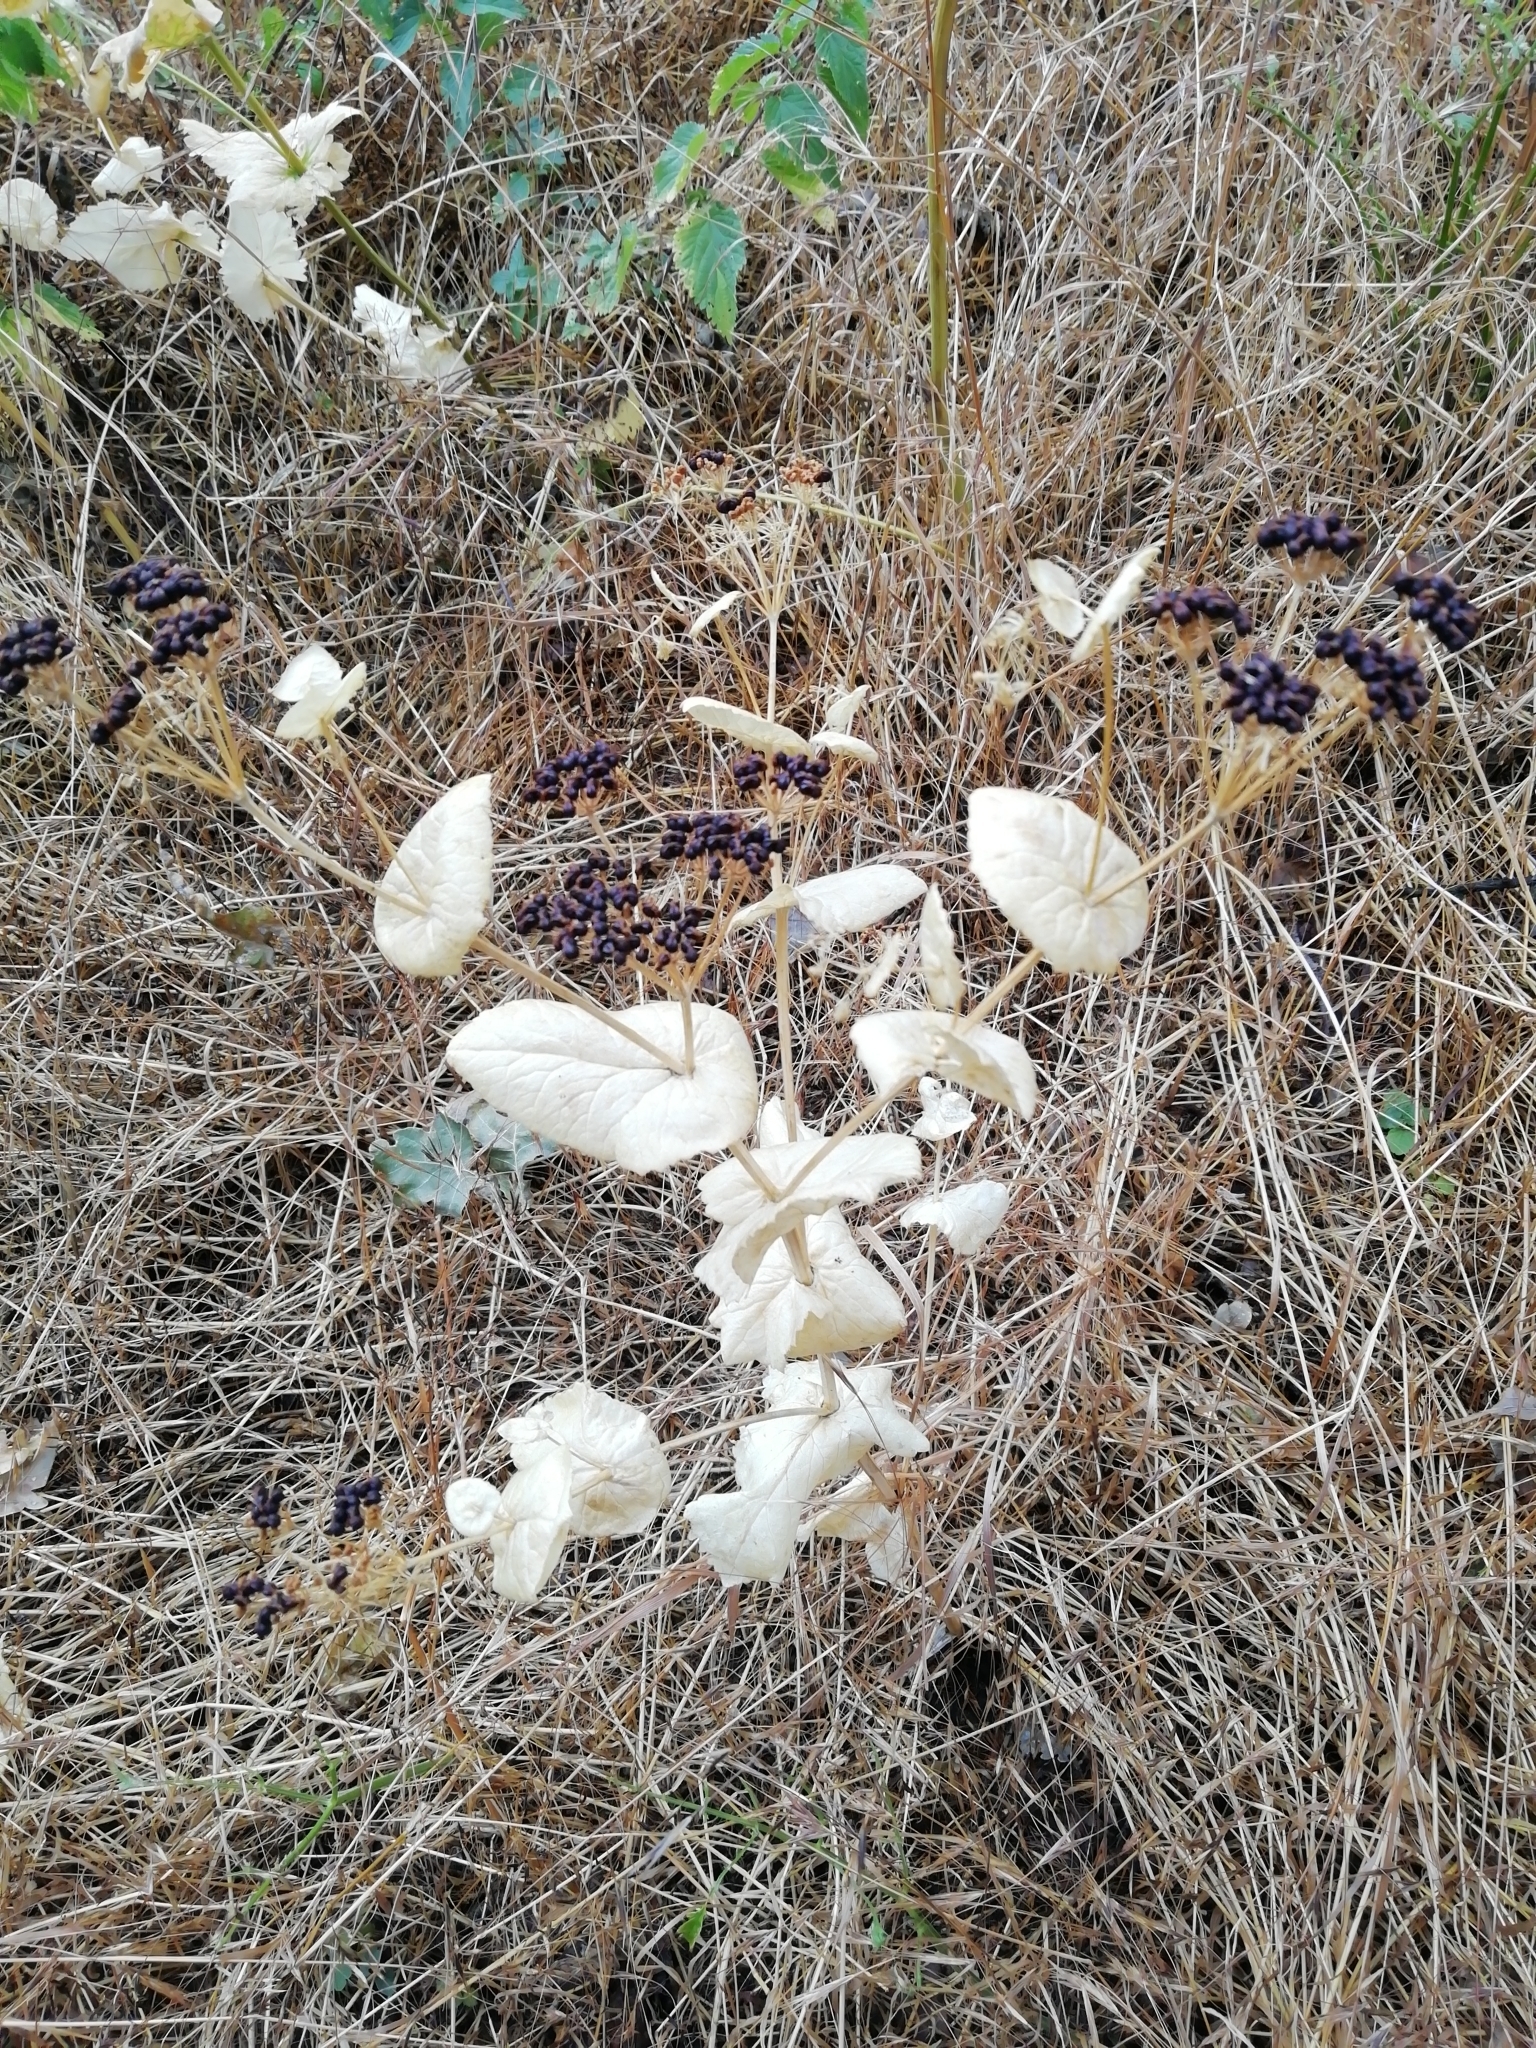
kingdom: Plantae
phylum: Tracheophyta
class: Magnoliopsida
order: Apiales
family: Apiaceae
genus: Smyrnium
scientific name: Smyrnium perfoliatum
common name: Perfoliate alexanders
